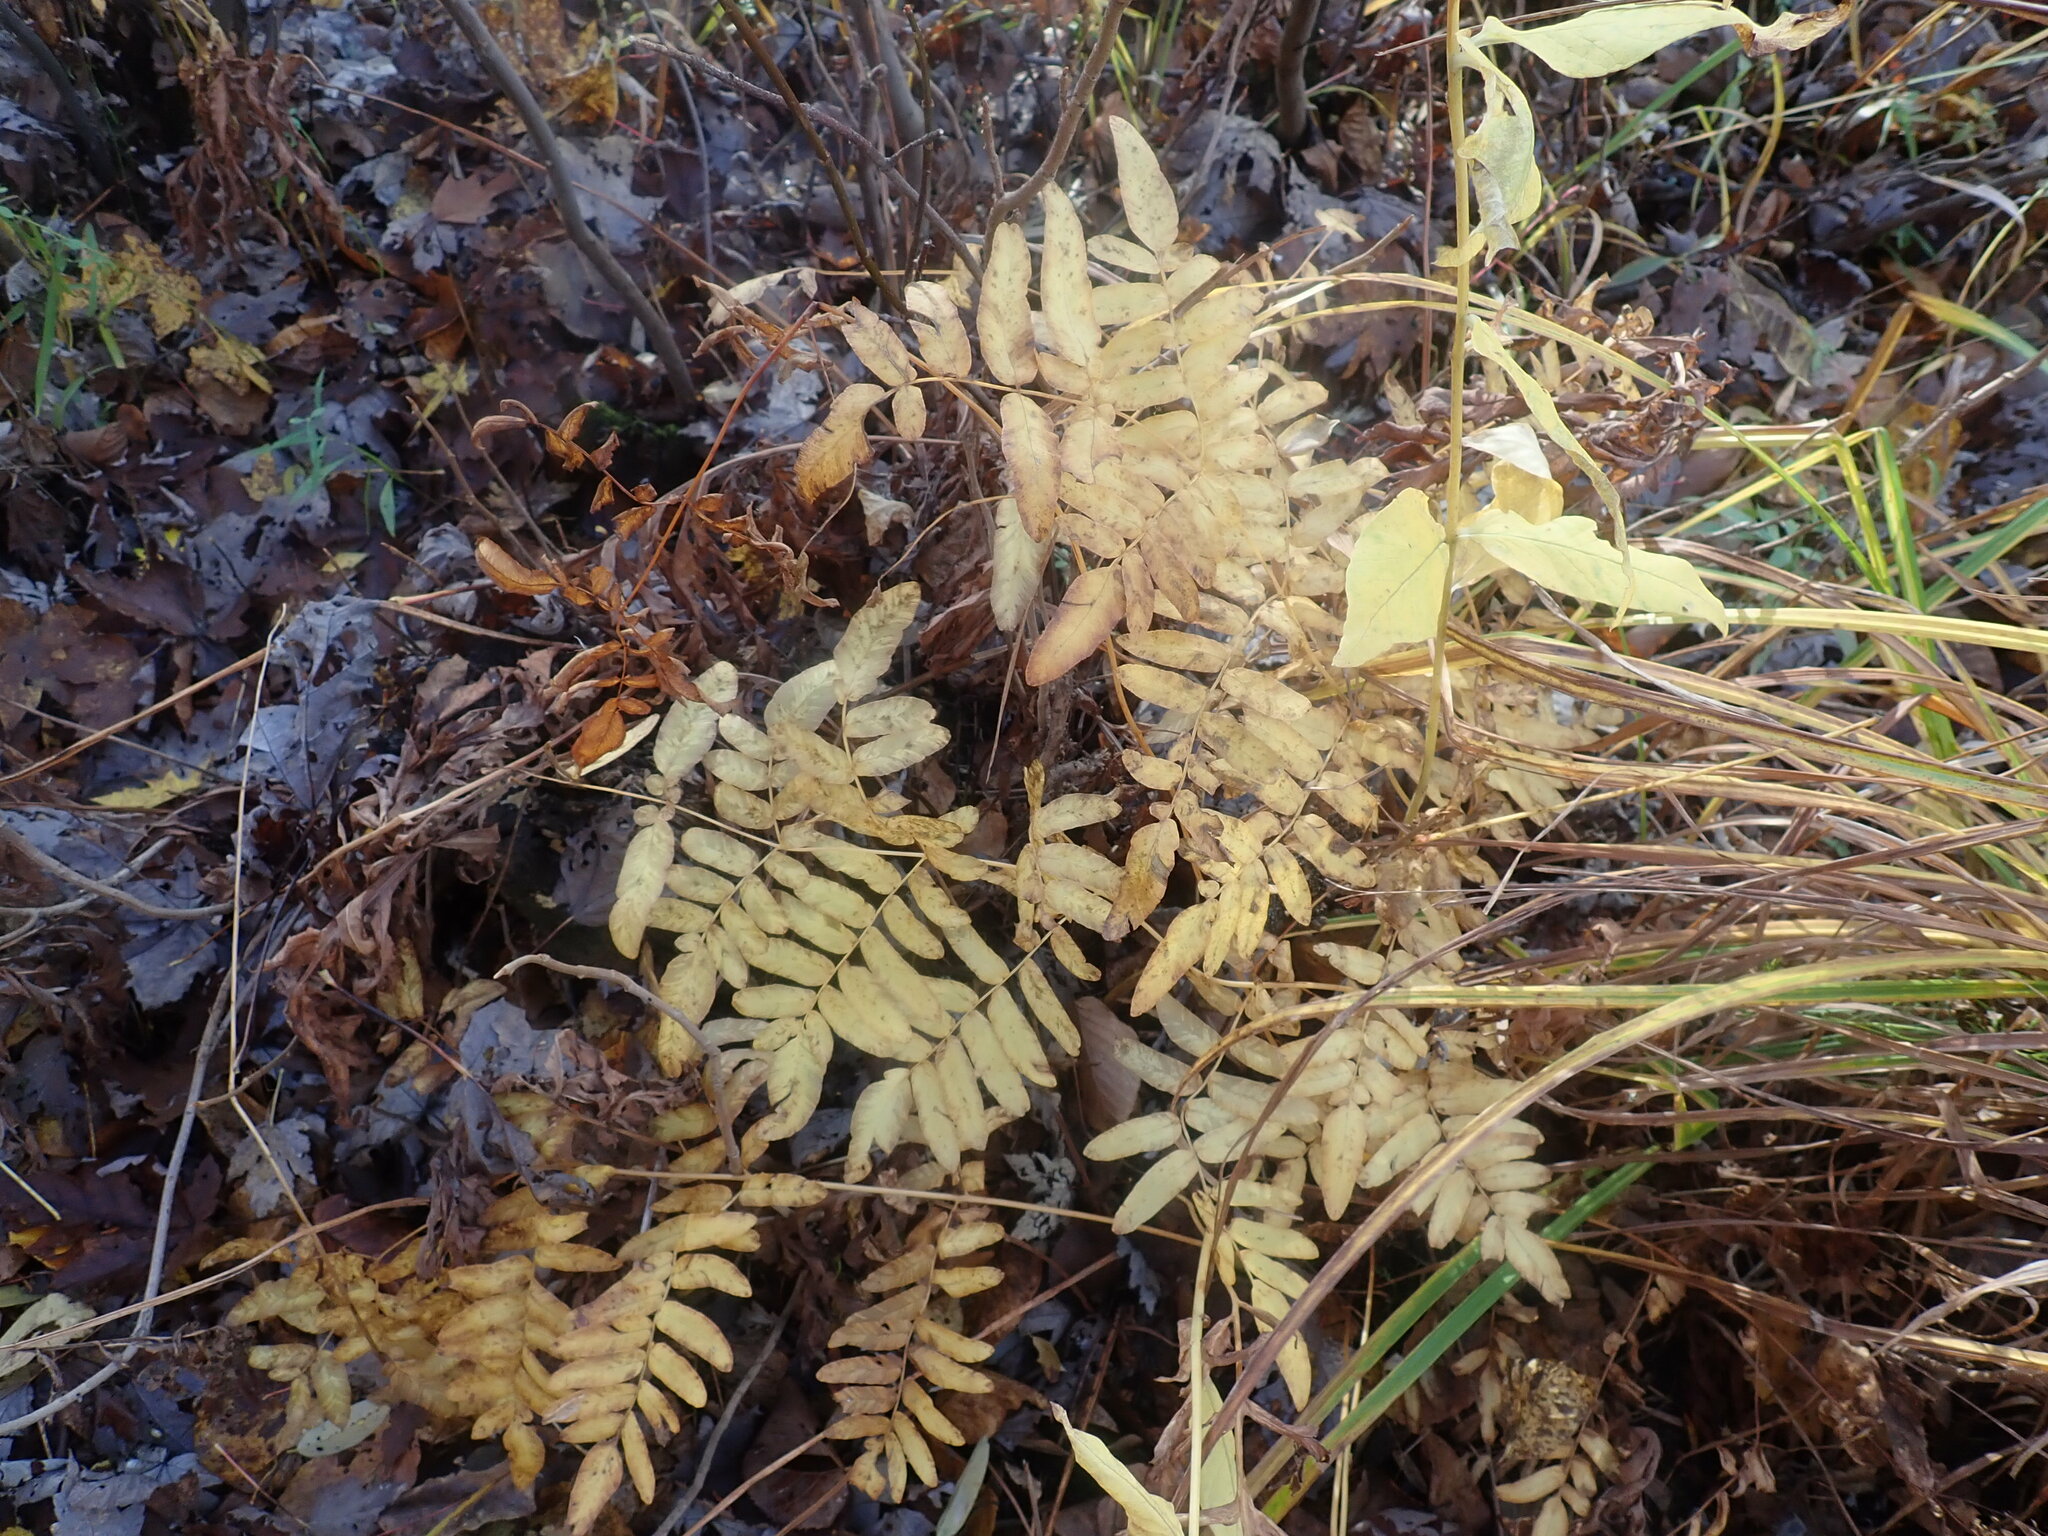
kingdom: Plantae
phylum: Tracheophyta
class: Polypodiopsida
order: Osmundales
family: Osmundaceae
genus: Osmunda
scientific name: Osmunda spectabilis
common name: American royal fern
